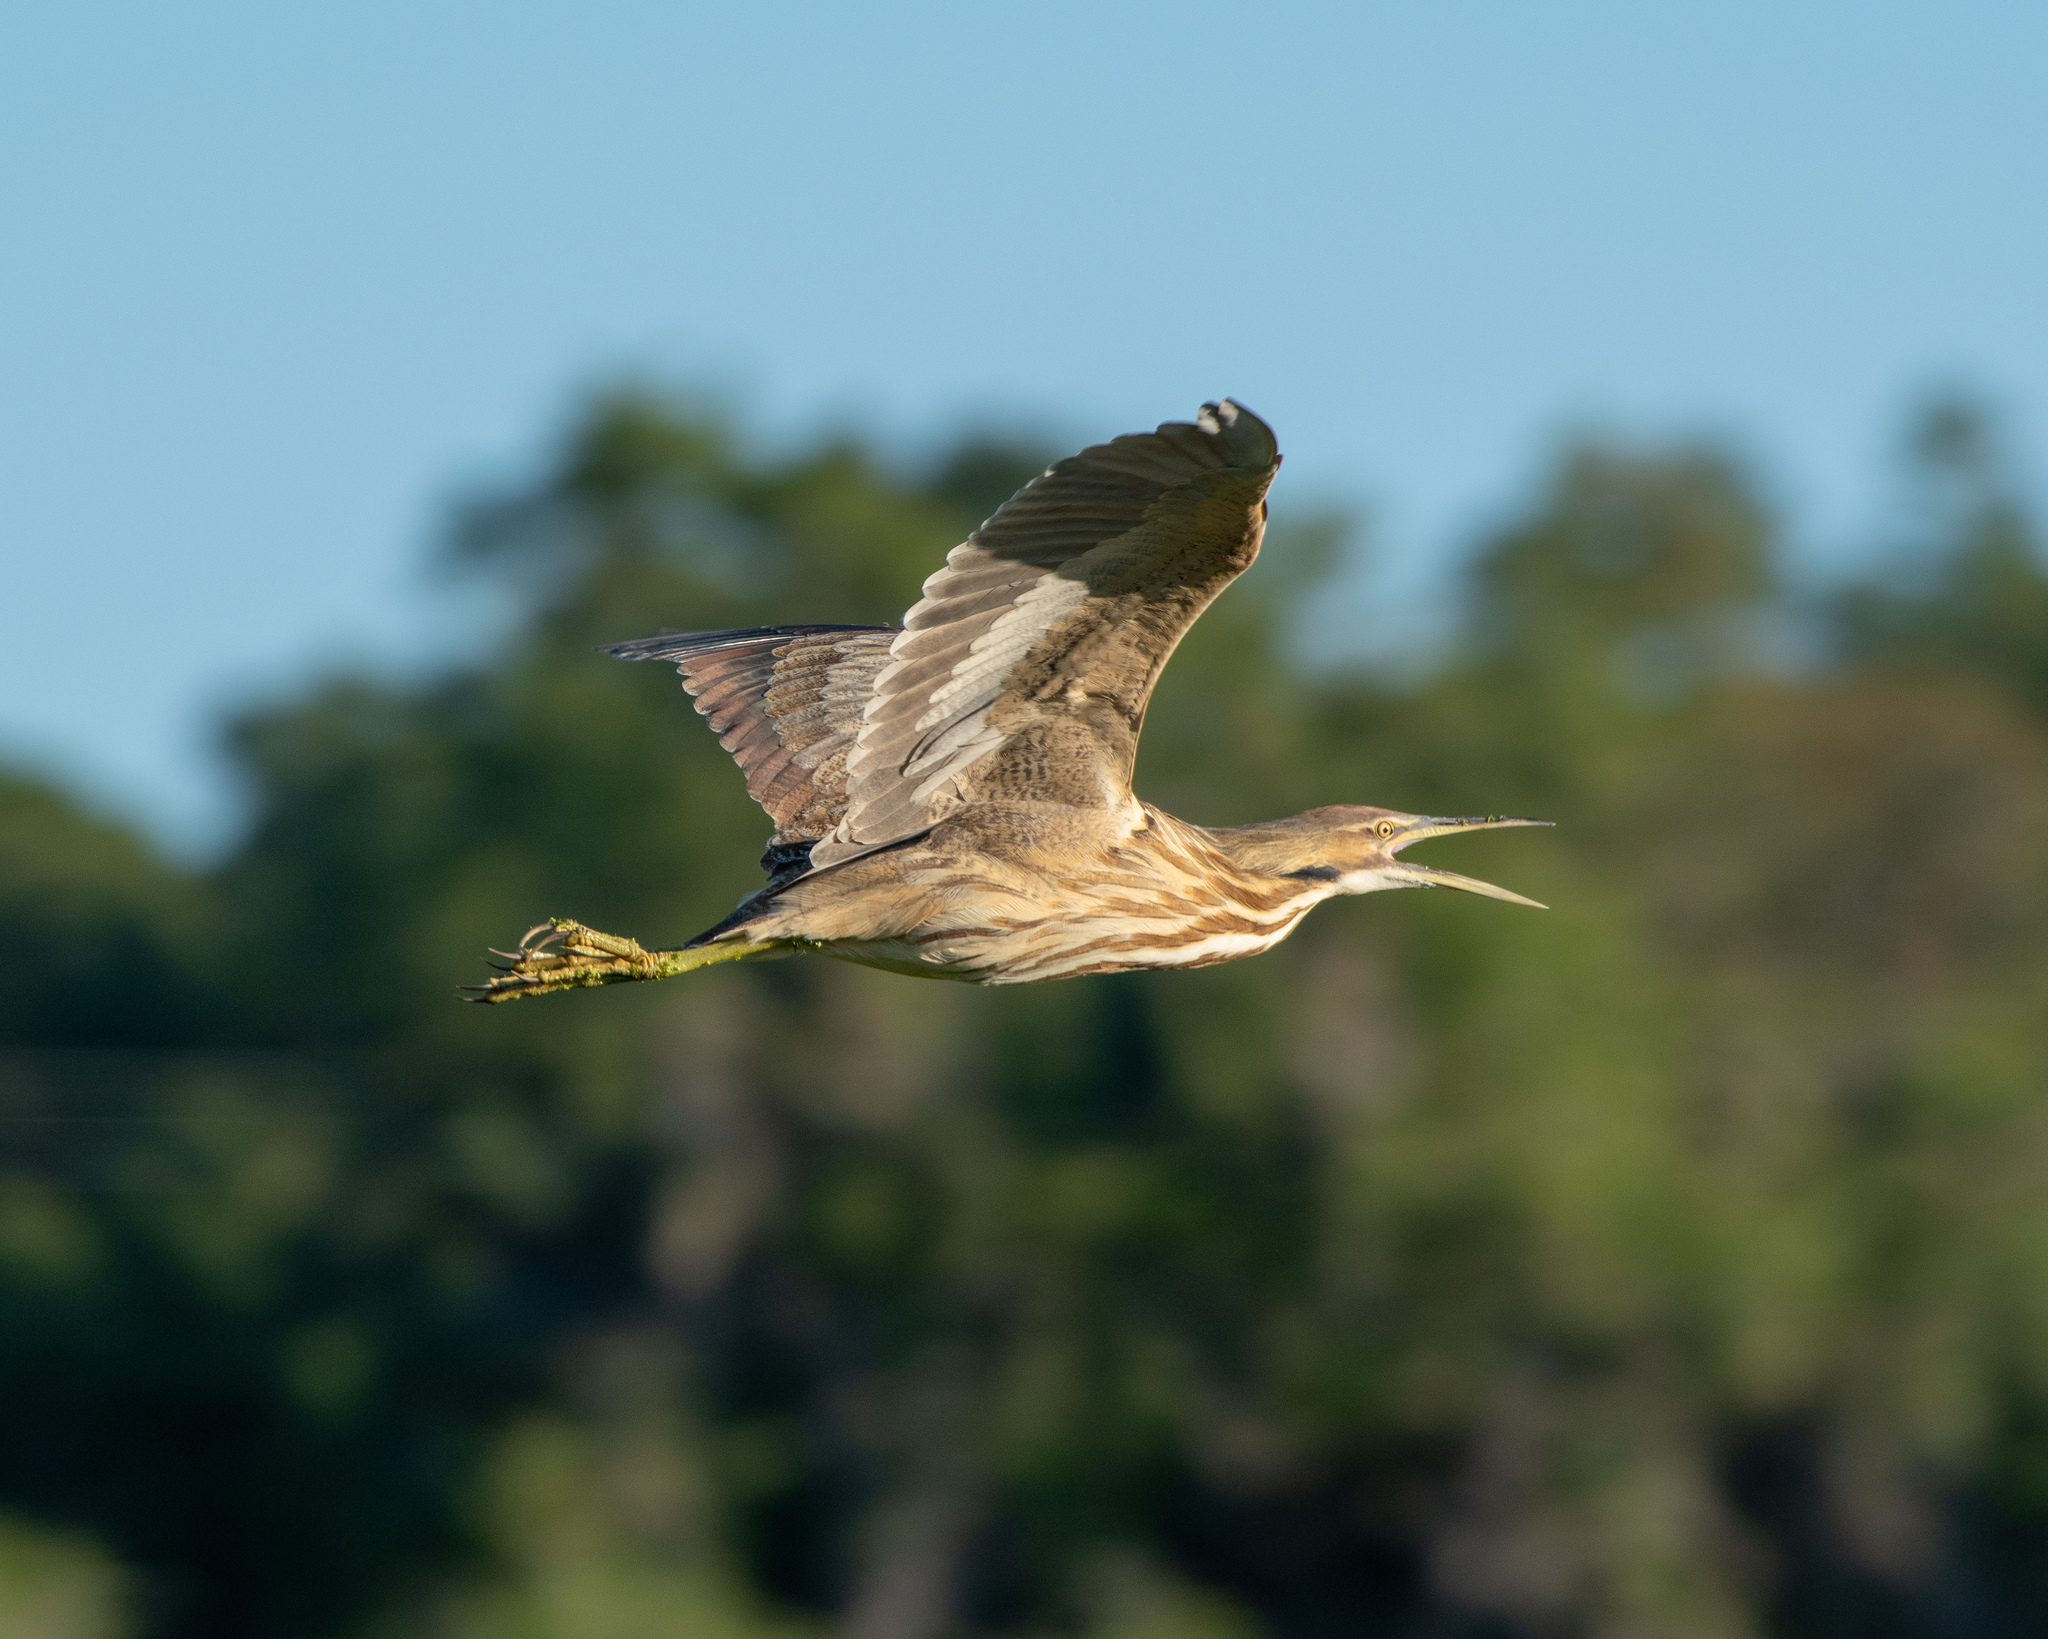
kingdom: Animalia
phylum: Chordata
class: Aves
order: Pelecaniformes
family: Ardeidae
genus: Botaurus
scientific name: Botaurus lentiginosus
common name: American bittern
